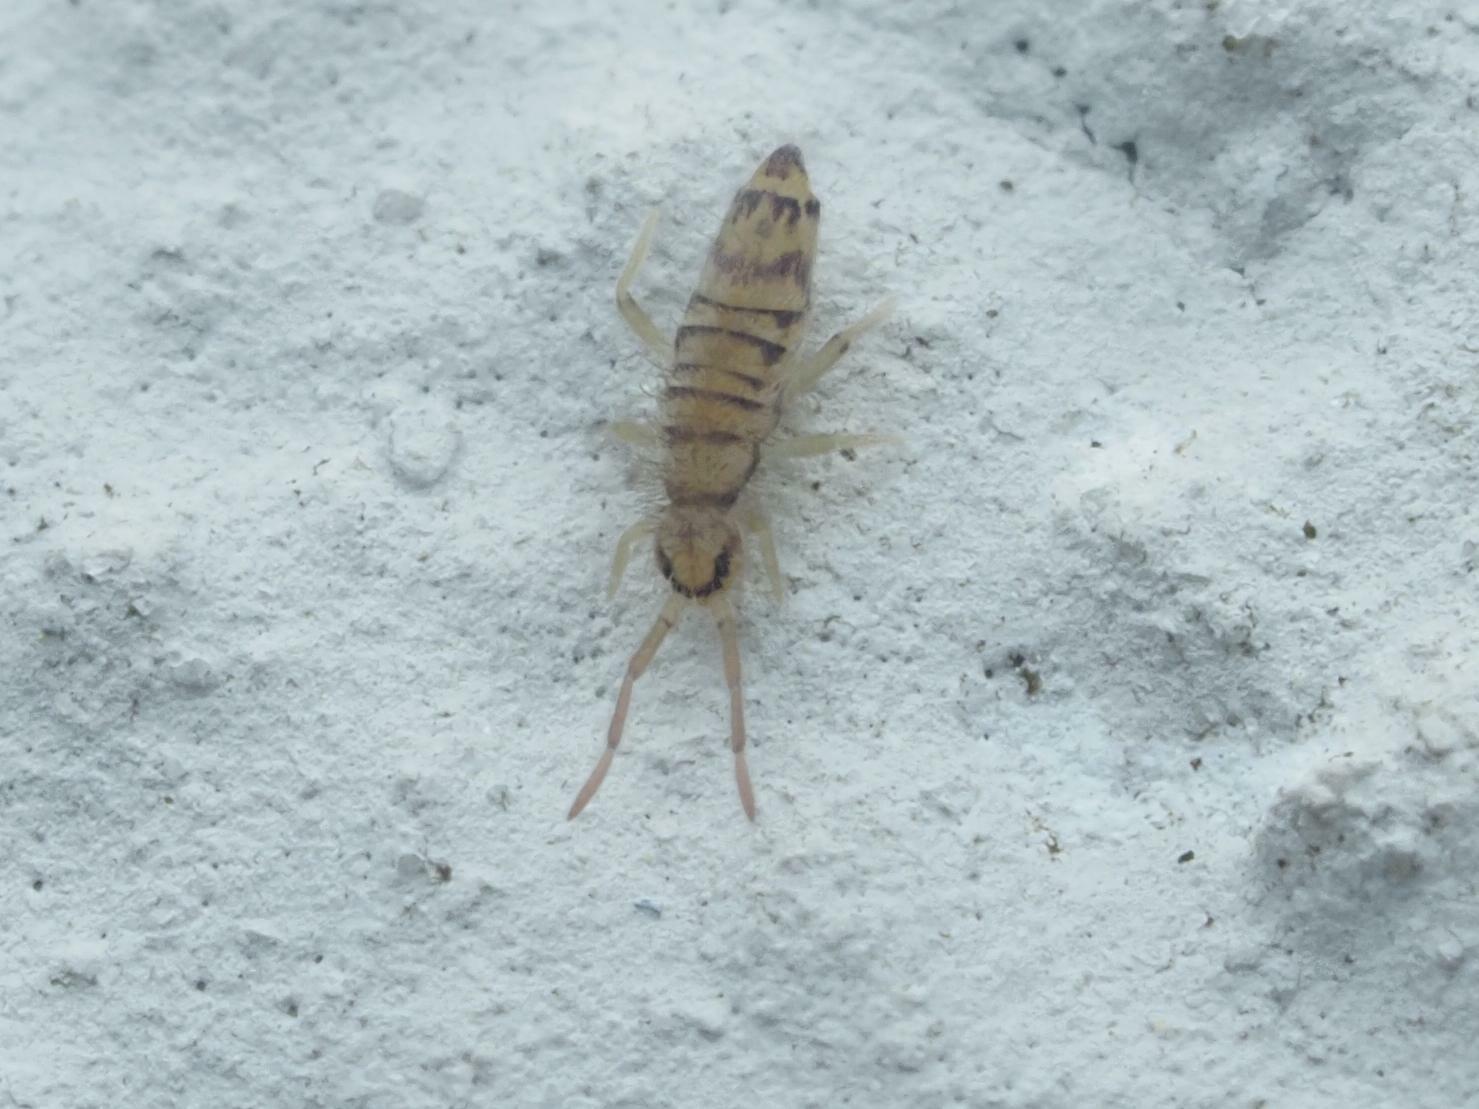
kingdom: Animalia
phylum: Arthropoda
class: Collembola
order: Entomobryomorpha
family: Entomobryidae
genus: Entomobrya
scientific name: Entomobrya multifasciata
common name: Springtail
